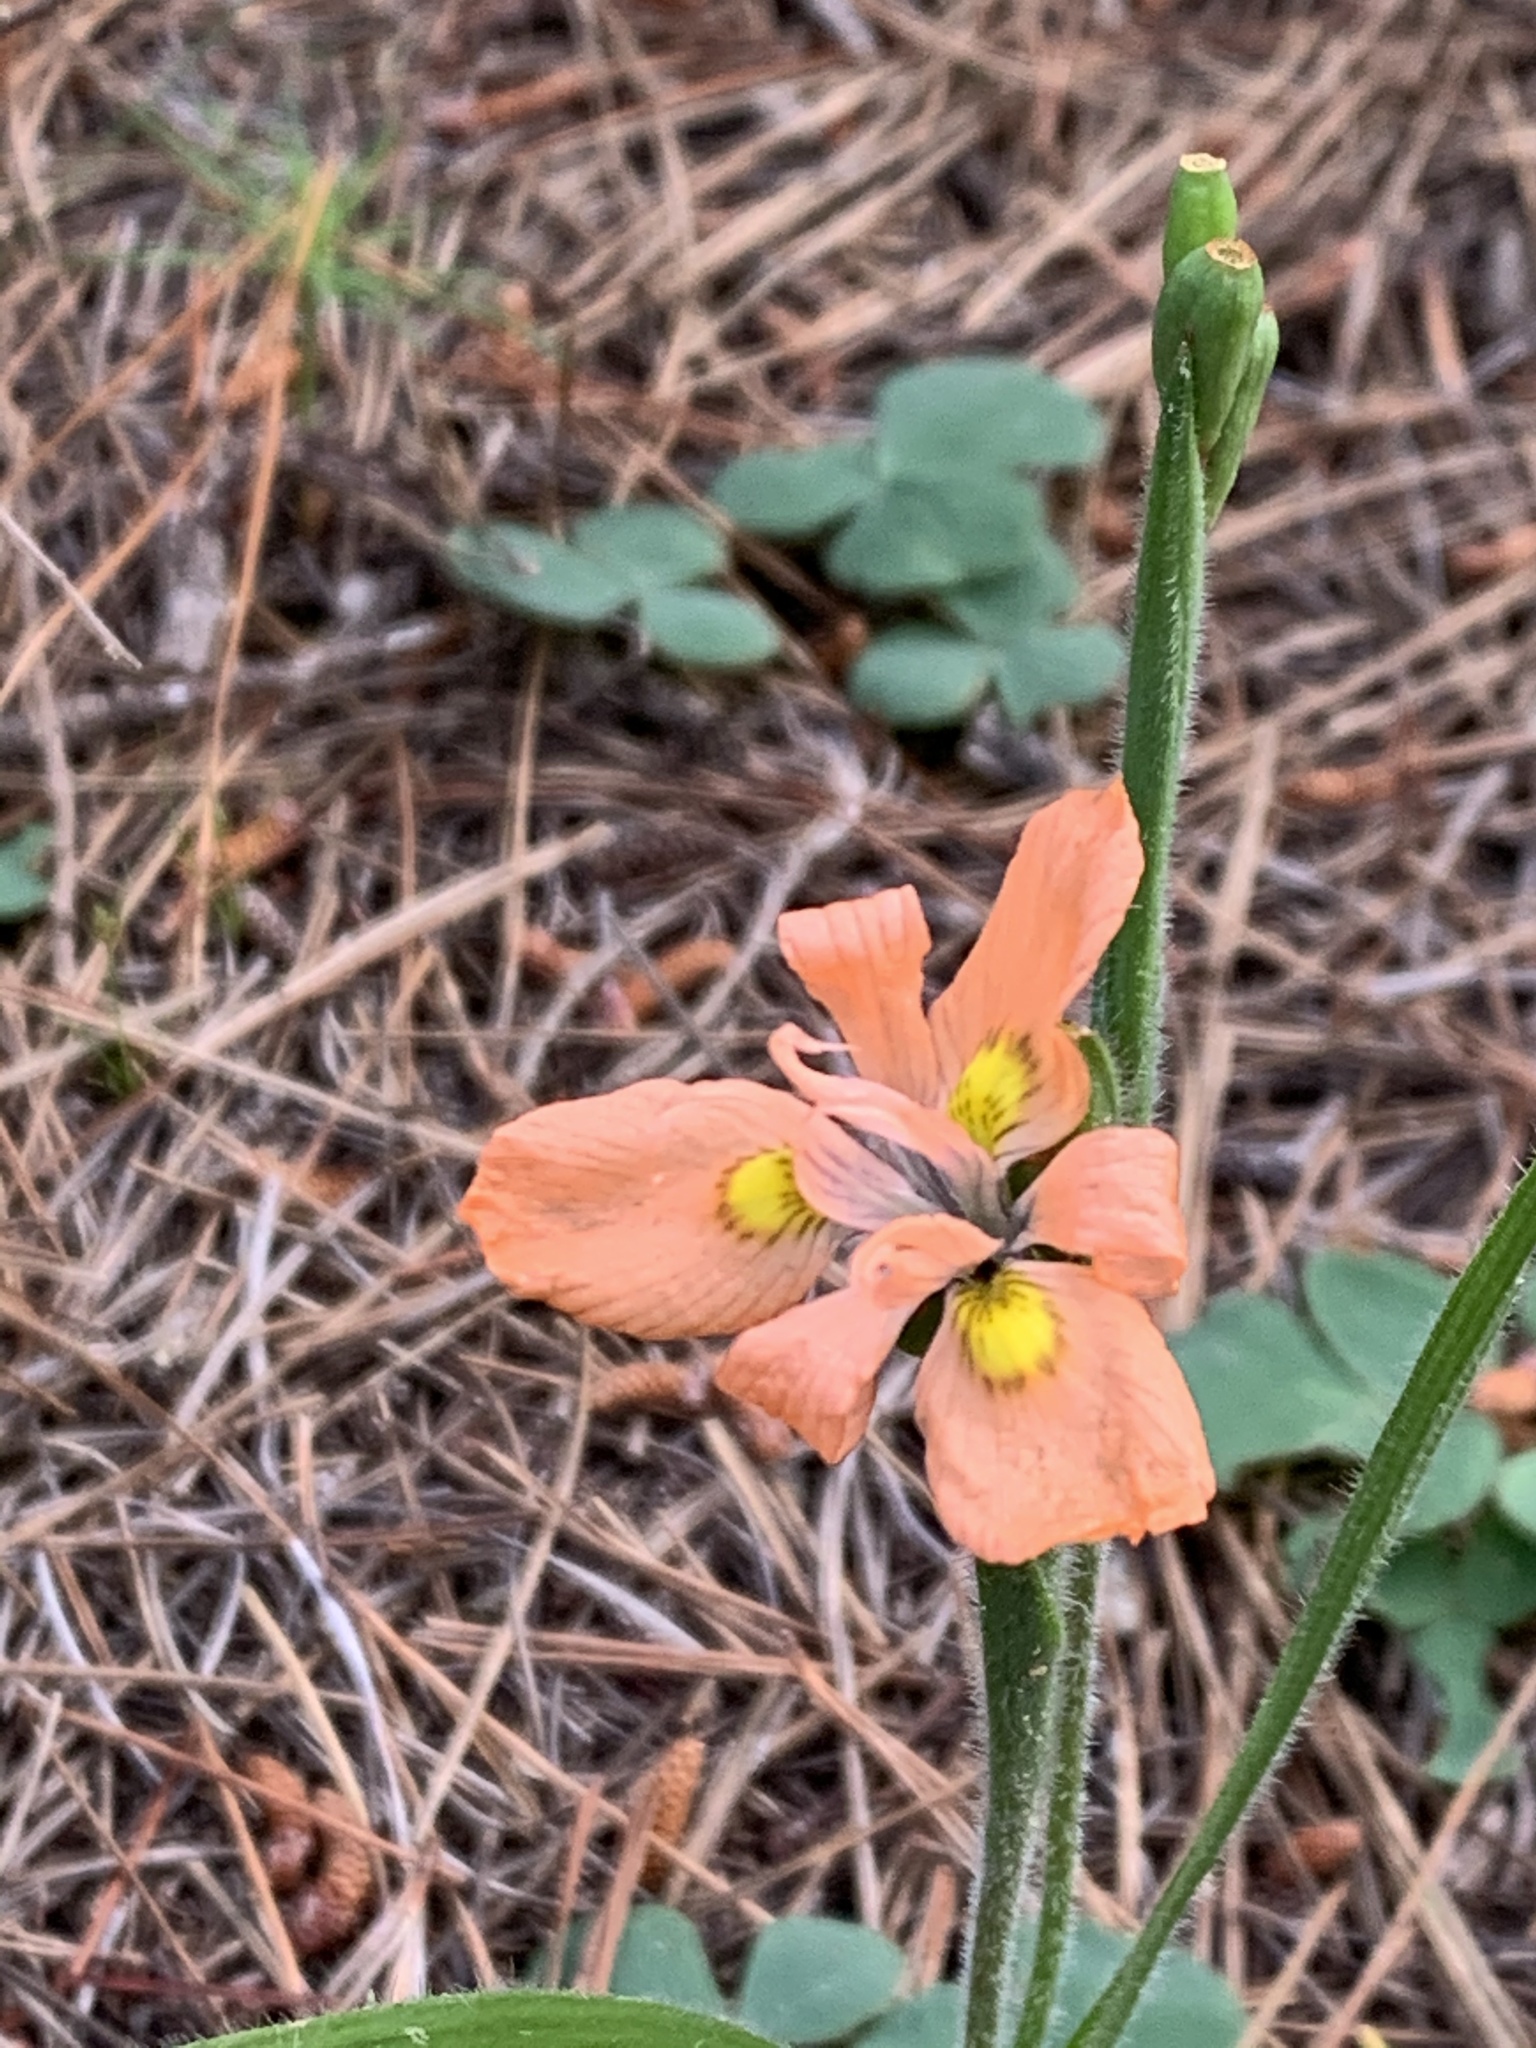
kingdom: Plantae
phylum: Tracheophyta
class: Liliopsida
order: Asparagales
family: Iridaceae
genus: Moraea
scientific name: Moraea papilionacea
